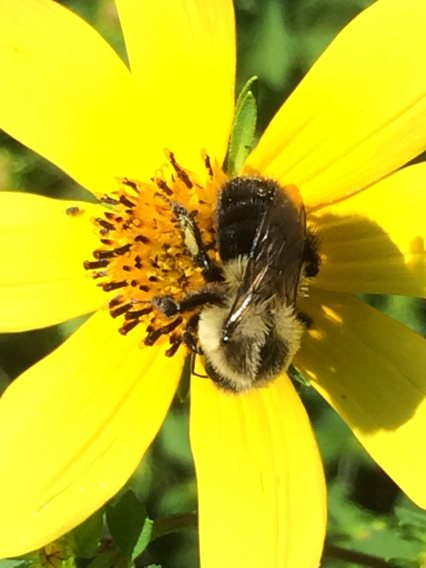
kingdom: Animalia
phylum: Arthropoda
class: Insecta
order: Hymenoptera
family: Apidae
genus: Bombus
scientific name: Bombus impatiens
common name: Common eastern bumble bee
